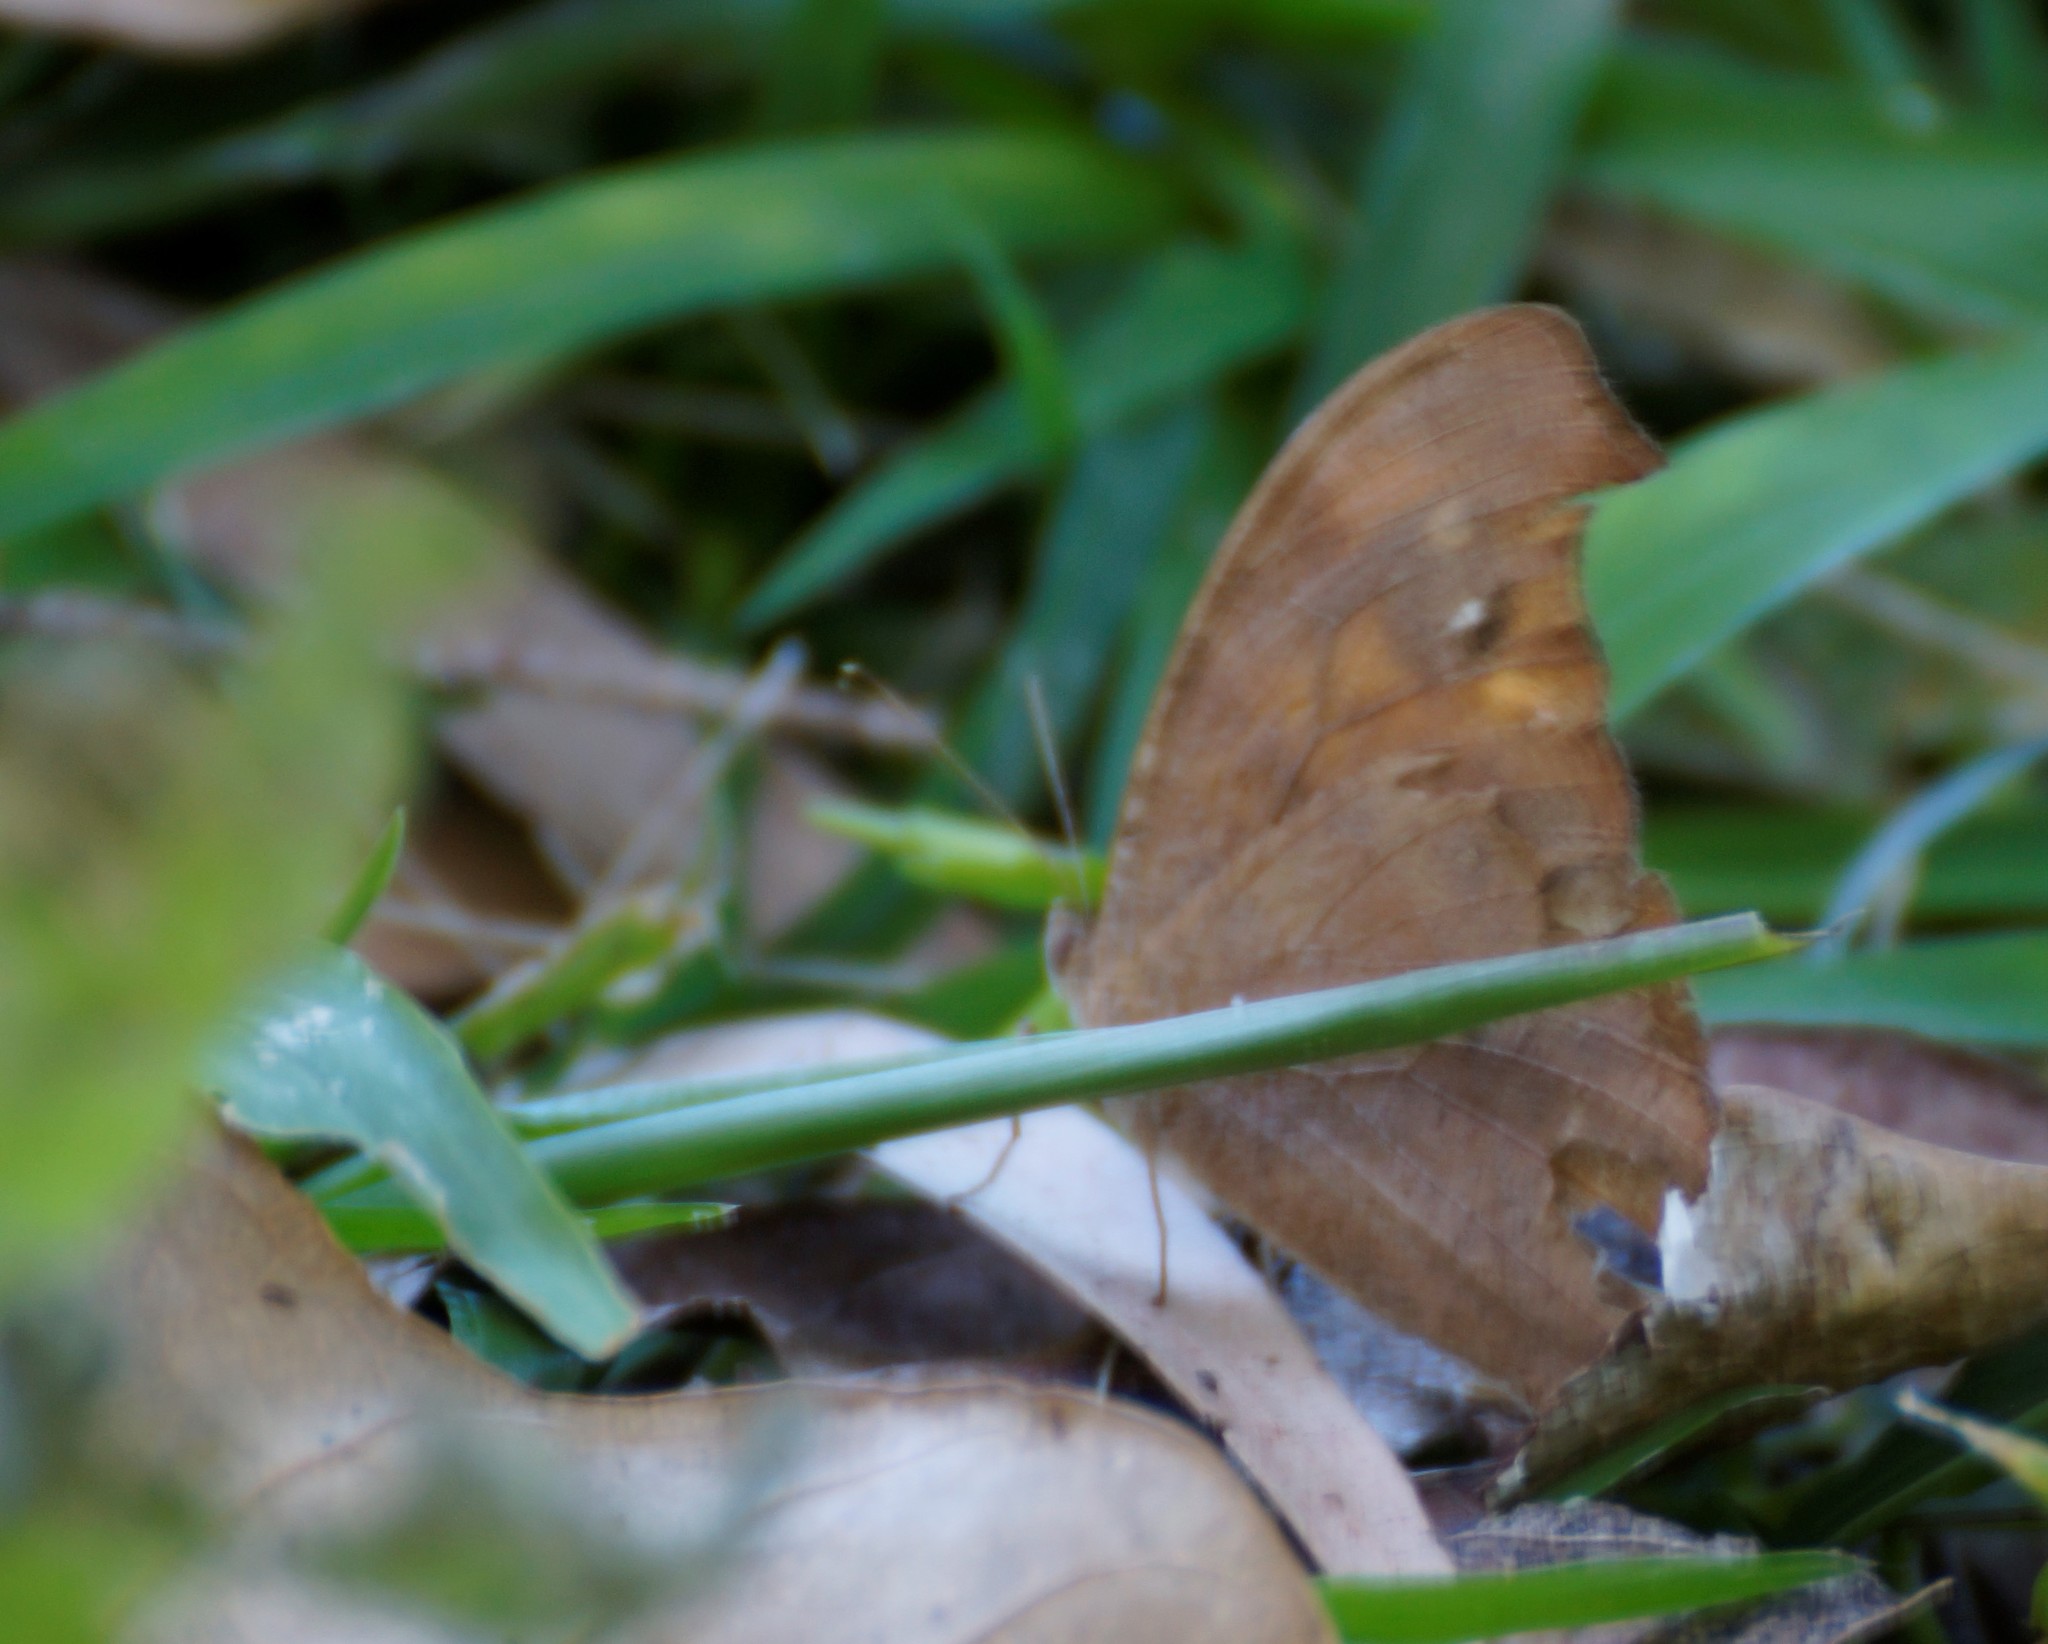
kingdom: Animalia
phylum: Arthropoda
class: Insecta
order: Lepidoptera
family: Nymphalidae
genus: Melanitis
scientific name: Melanitis leda
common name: Twilight brown
